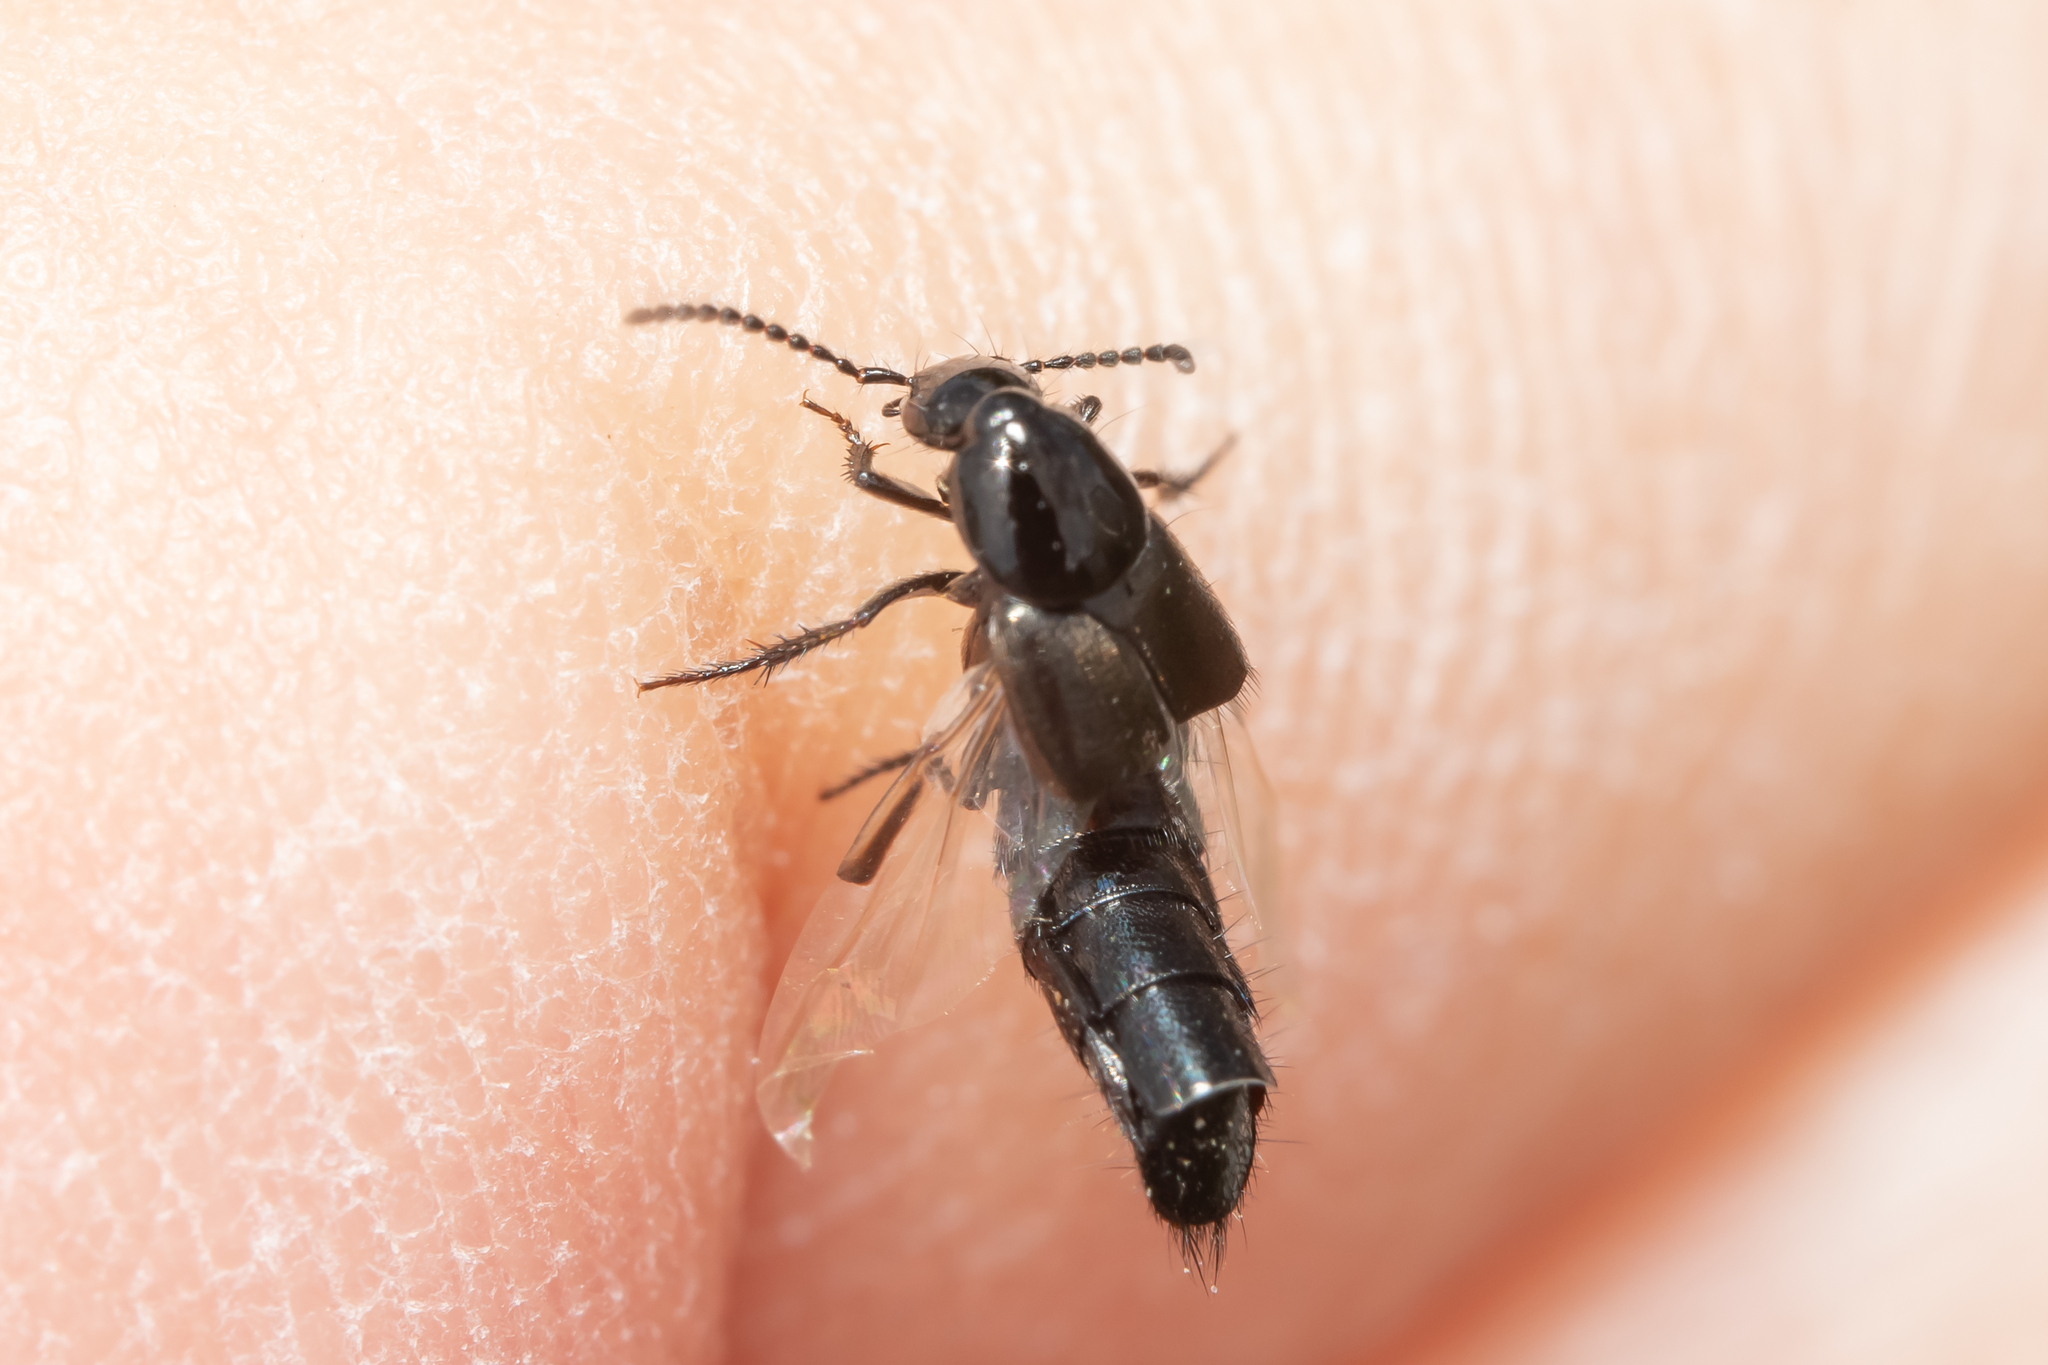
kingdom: Animalia
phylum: Arthropoda
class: Insecta
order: Coleoptera
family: Staphylinidae
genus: Philonthus
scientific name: Philonthus carbonarius
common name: Staph beetle
